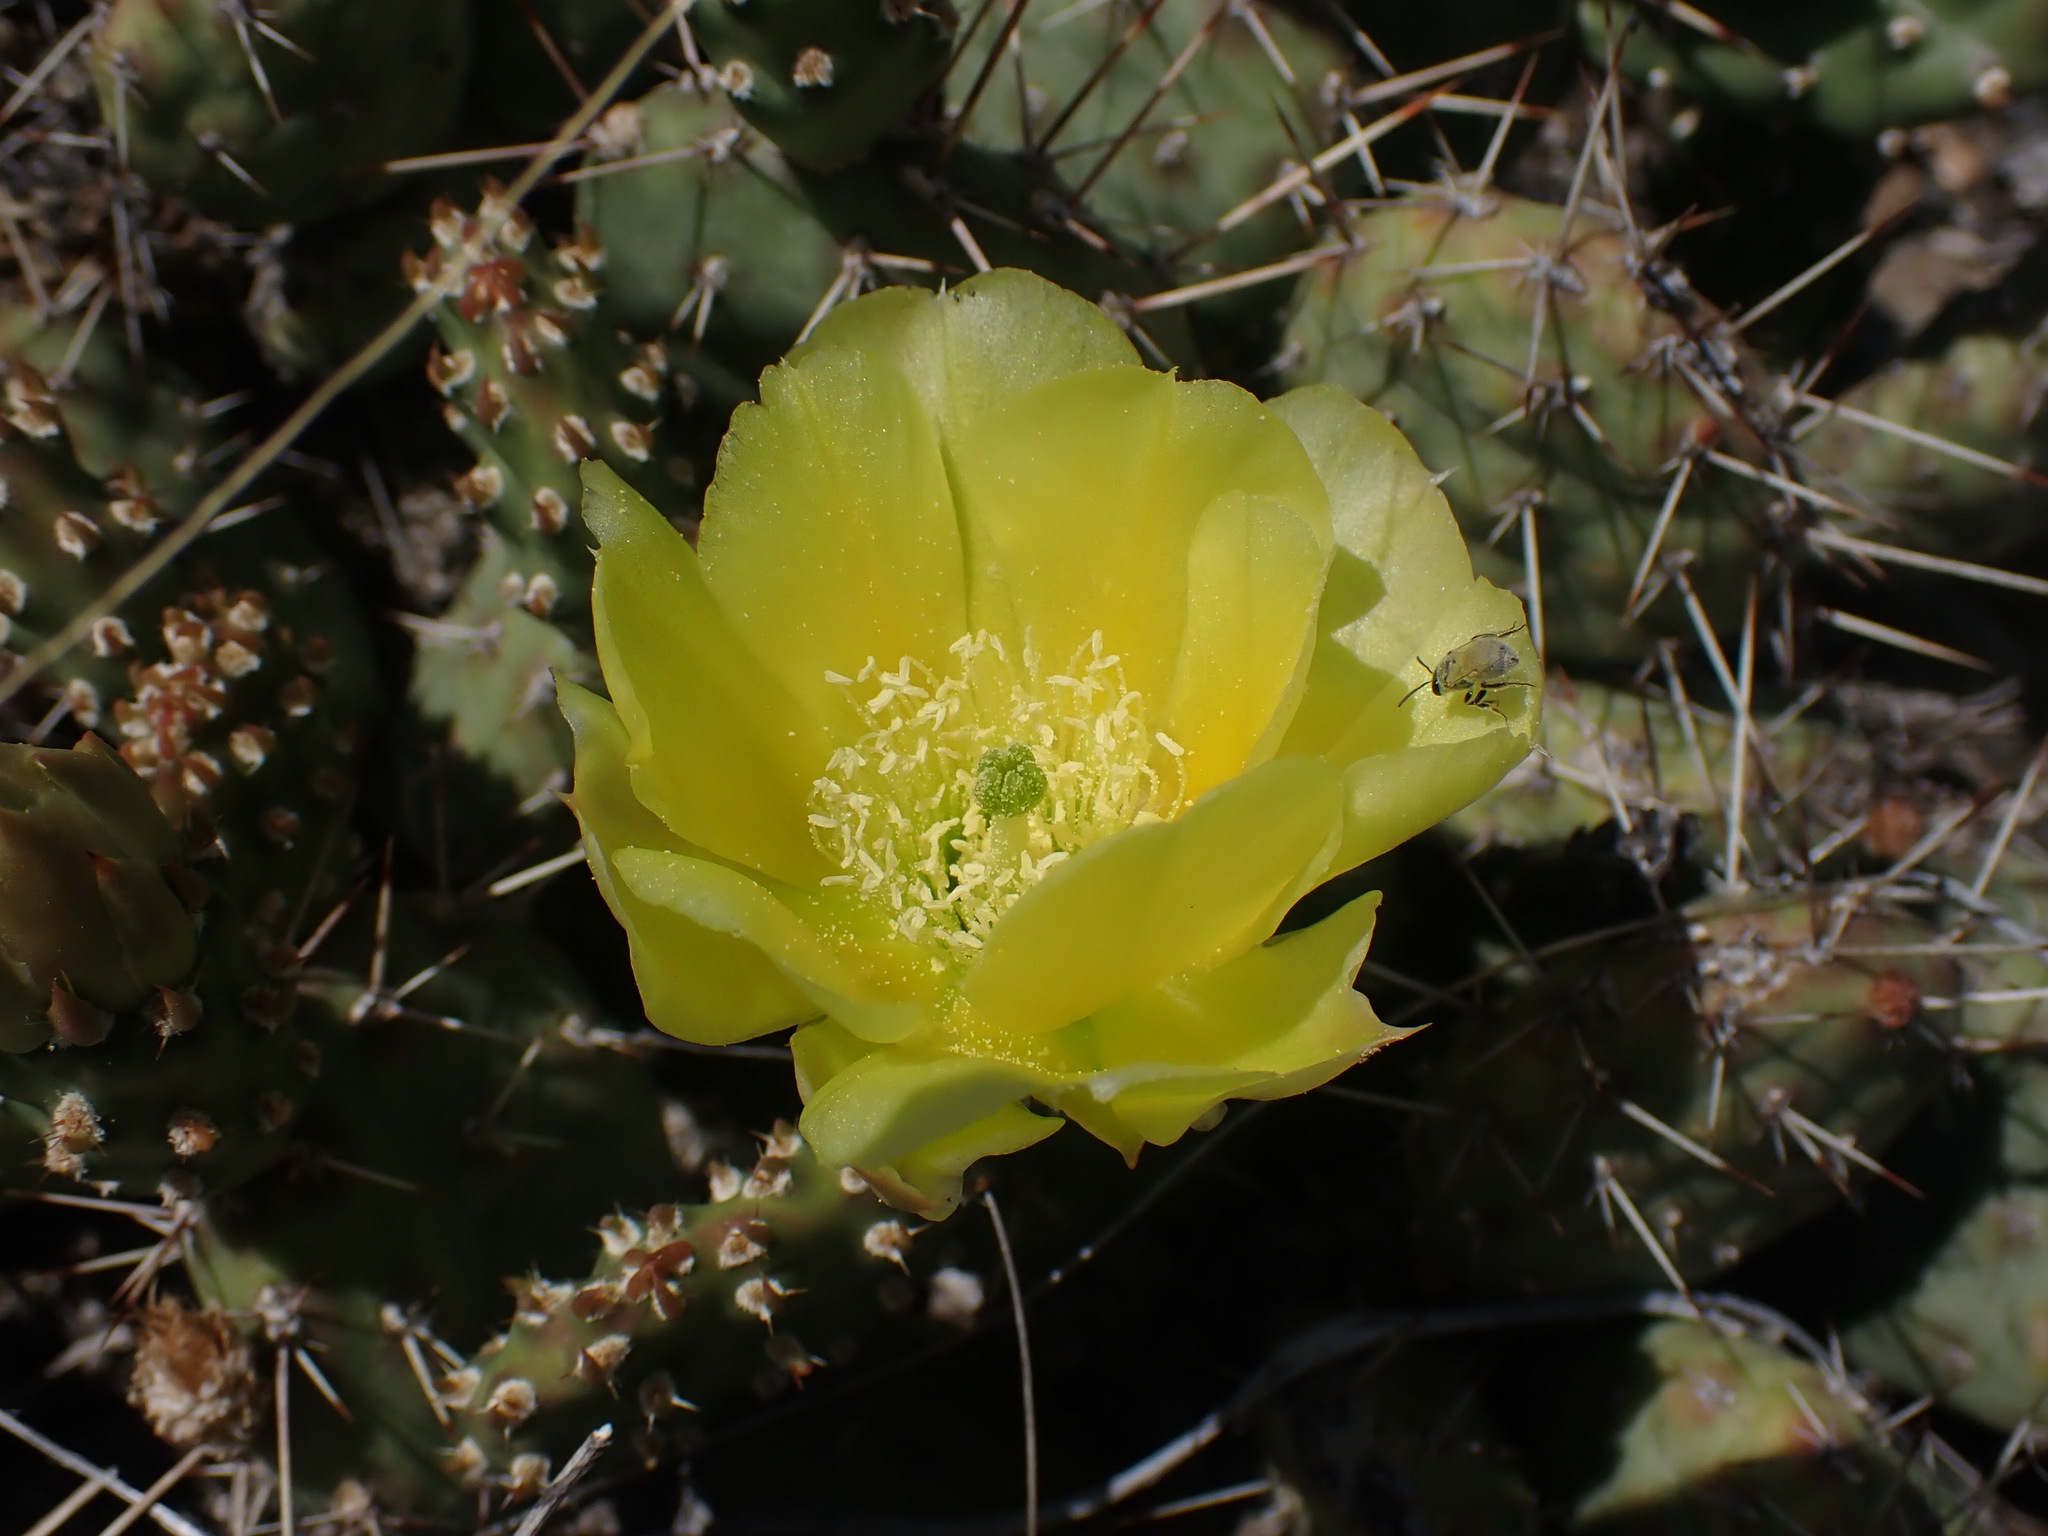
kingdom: Plantae
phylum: Tracheophyta
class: Magnoliopsida
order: Caryophyllales
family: Cactaceae
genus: Opuntia
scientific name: Opuntia fragilis
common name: Brittle cactus
